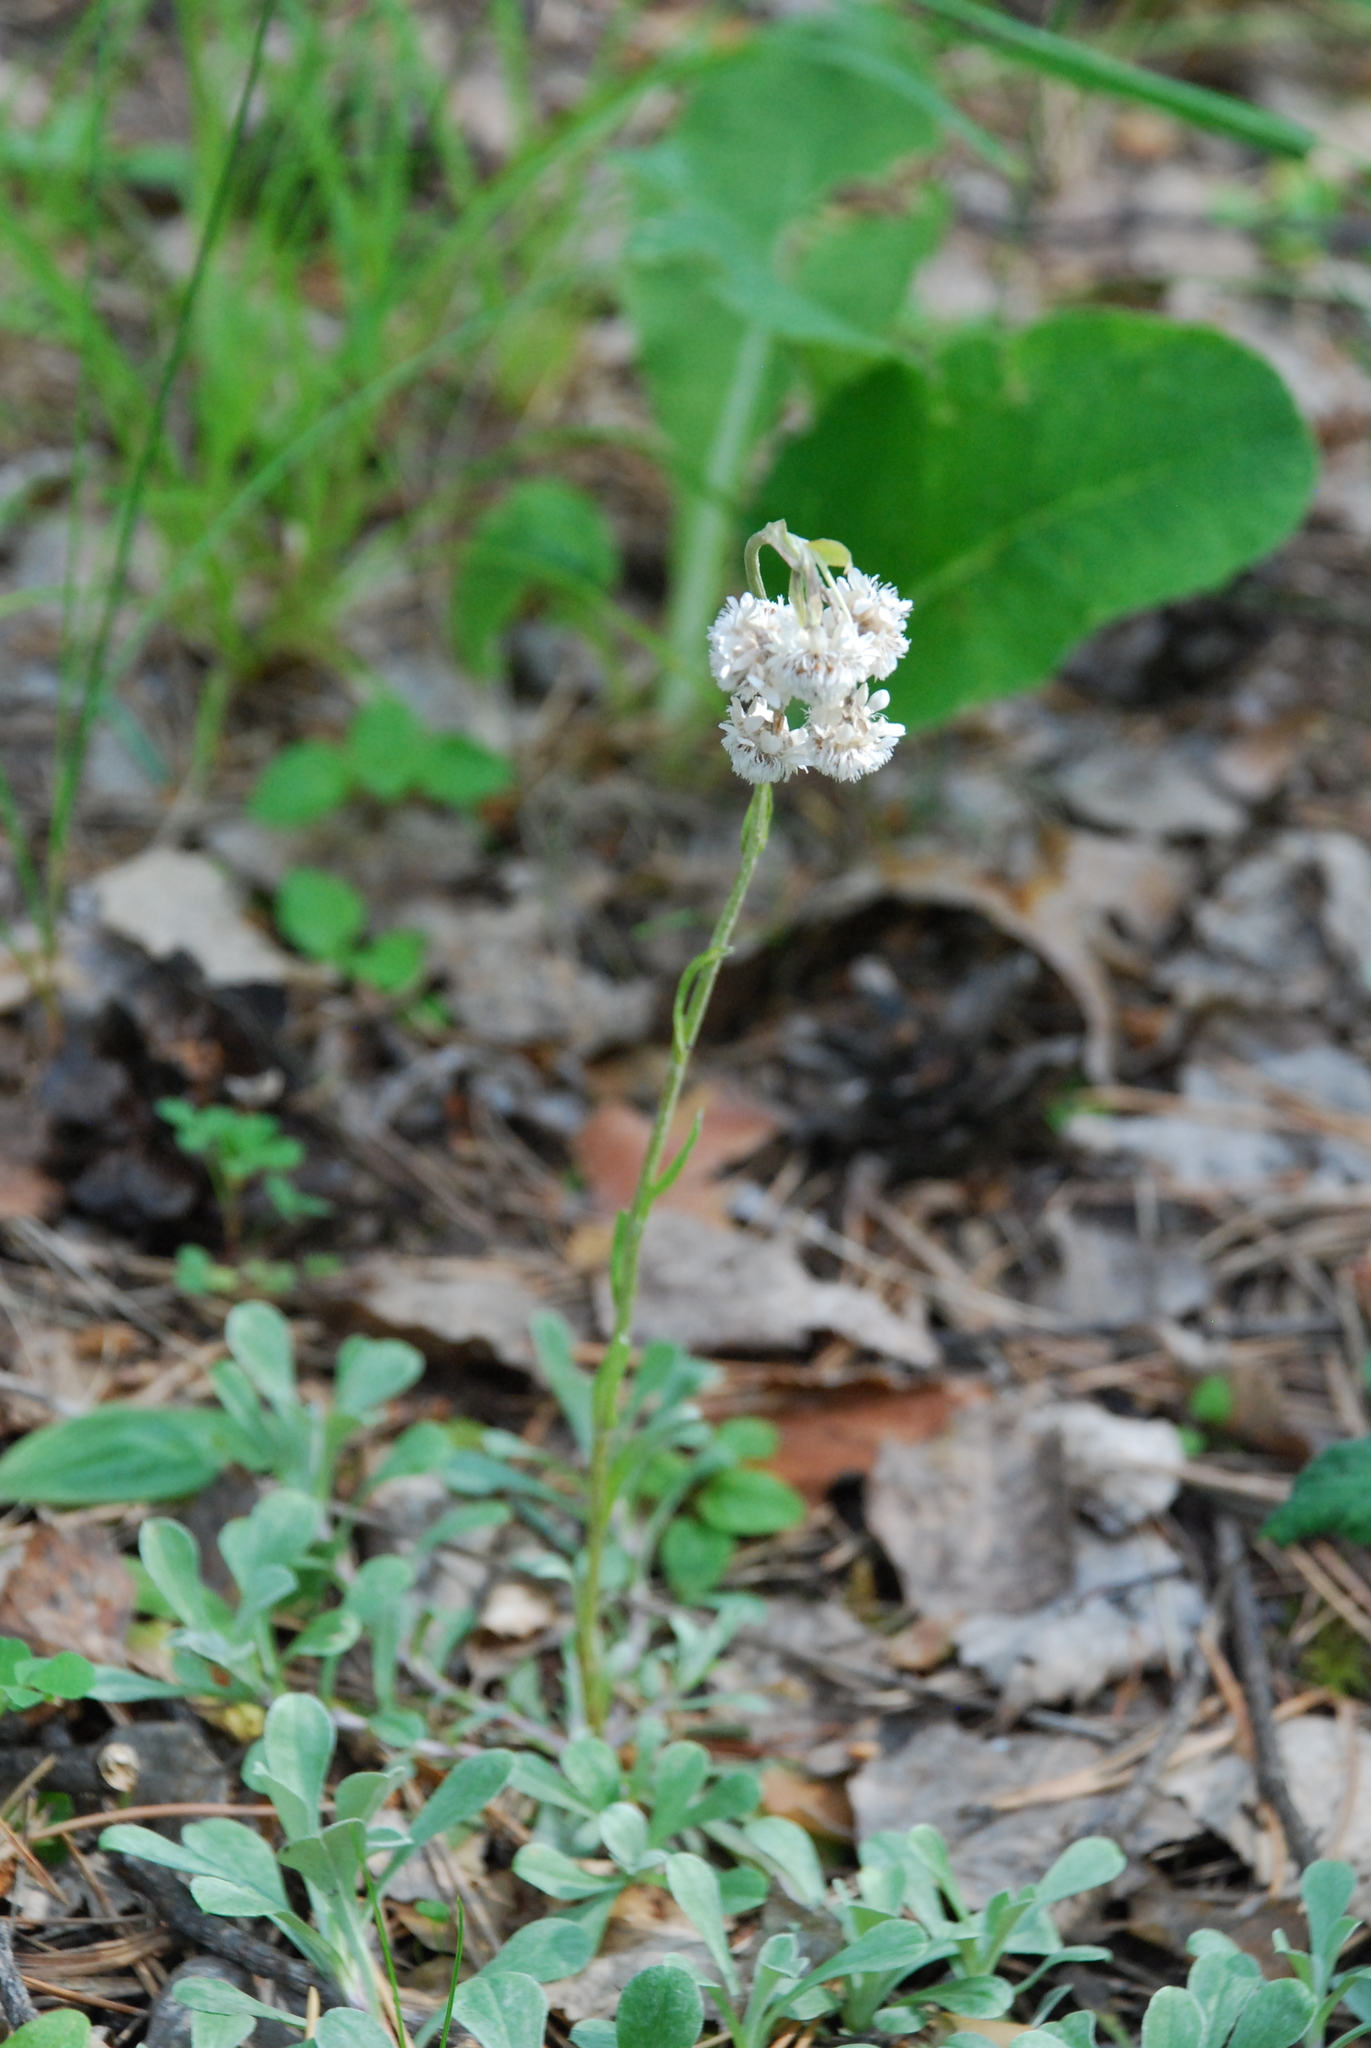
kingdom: Plantae
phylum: Tracheophyta
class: Magnoliopsida
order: Asterales
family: Asteraceae
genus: Antennaria
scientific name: Antennaria dioica
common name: Mountain everlasting
